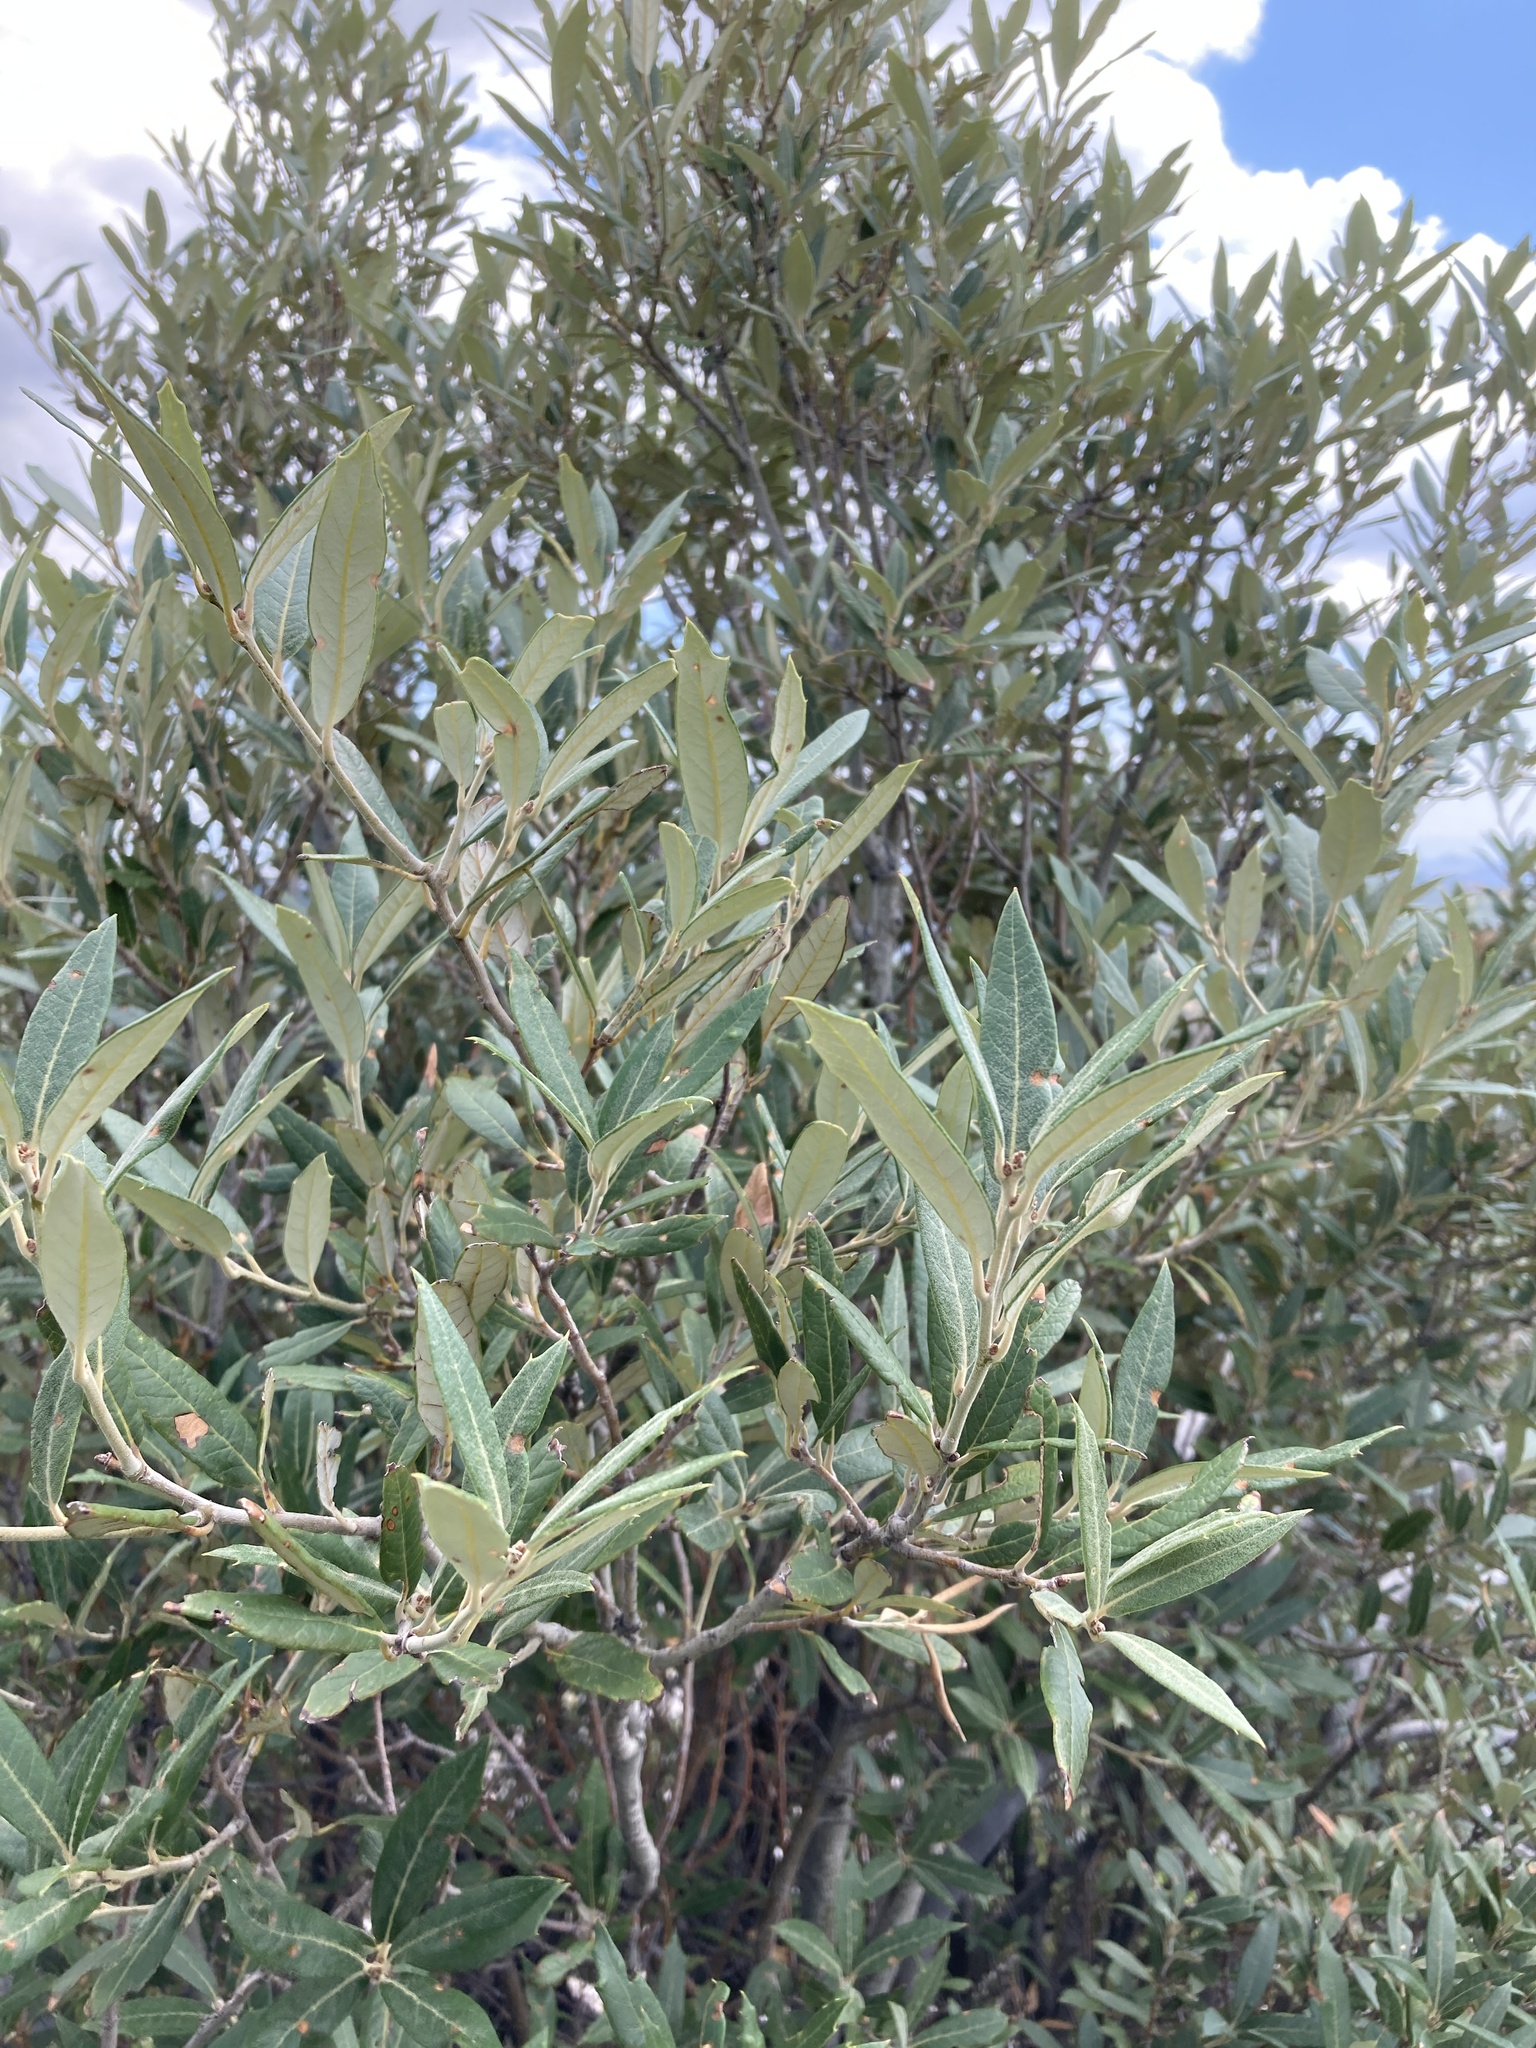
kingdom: Plantae
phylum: Tracheophyta
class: Magnoliopsida
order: Fagales
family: Fagaceae
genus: Quercus
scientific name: Quercus hypoleucoides
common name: Silverleaf oak
